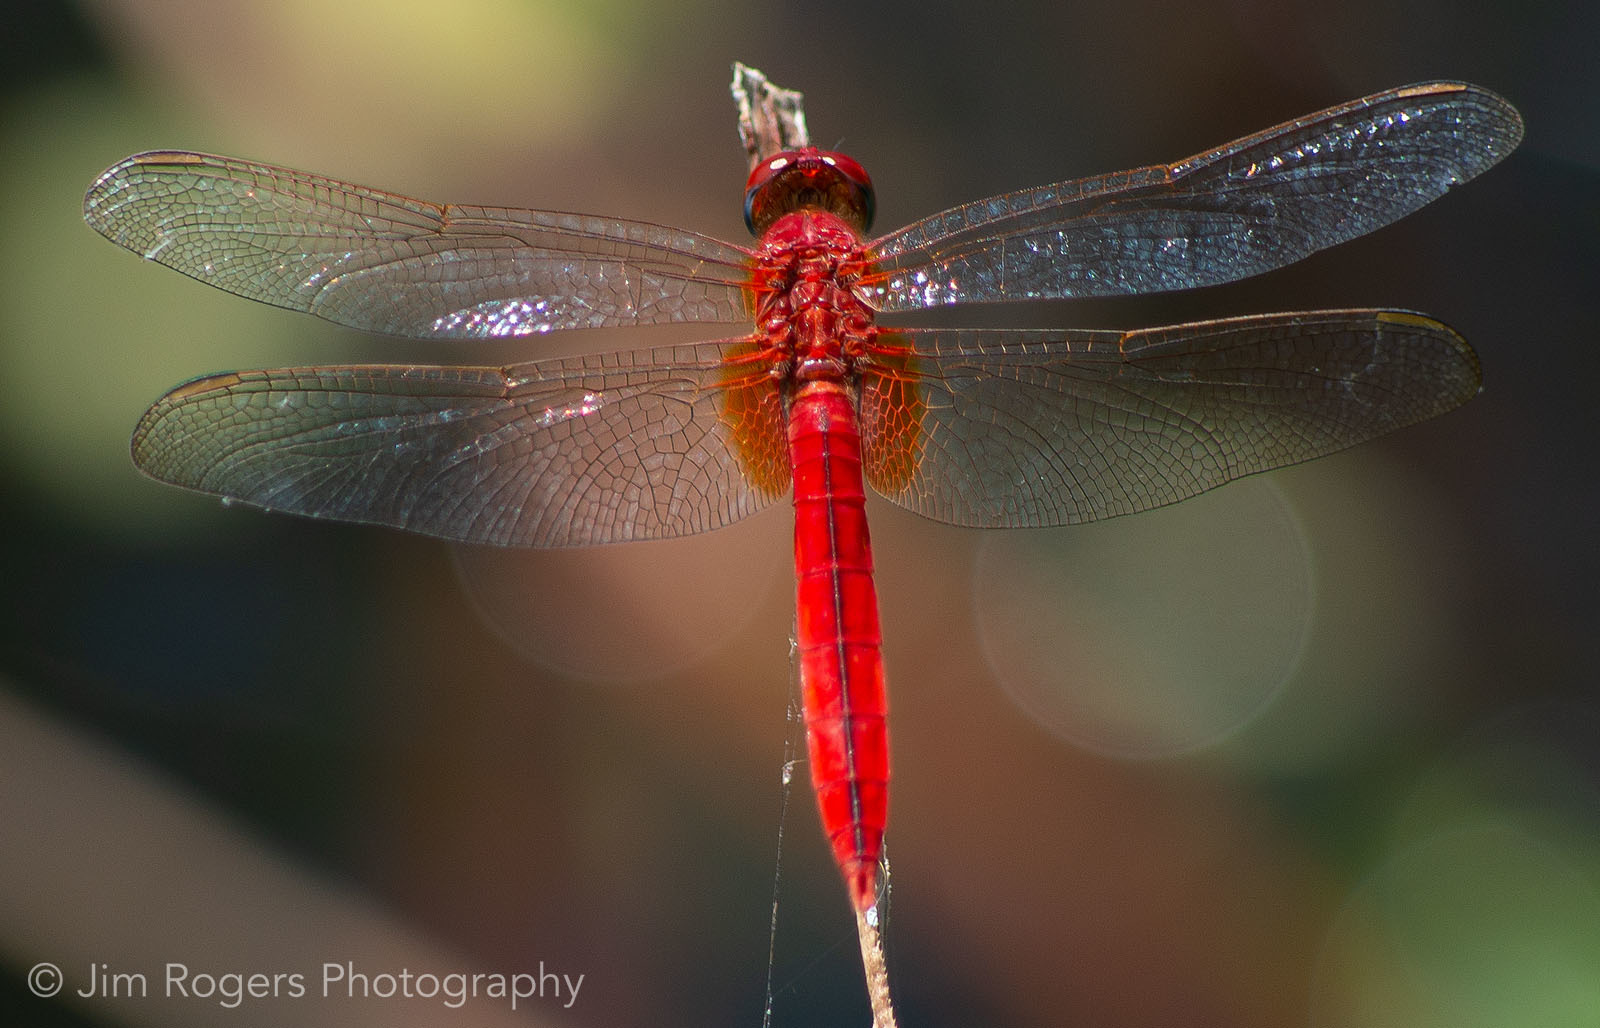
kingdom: Animalia
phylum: Arthropoda
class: Insecta
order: Odonata
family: Libellulidae
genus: Crocothemis
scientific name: Crocothemis servilia
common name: Scarlet skimmer
